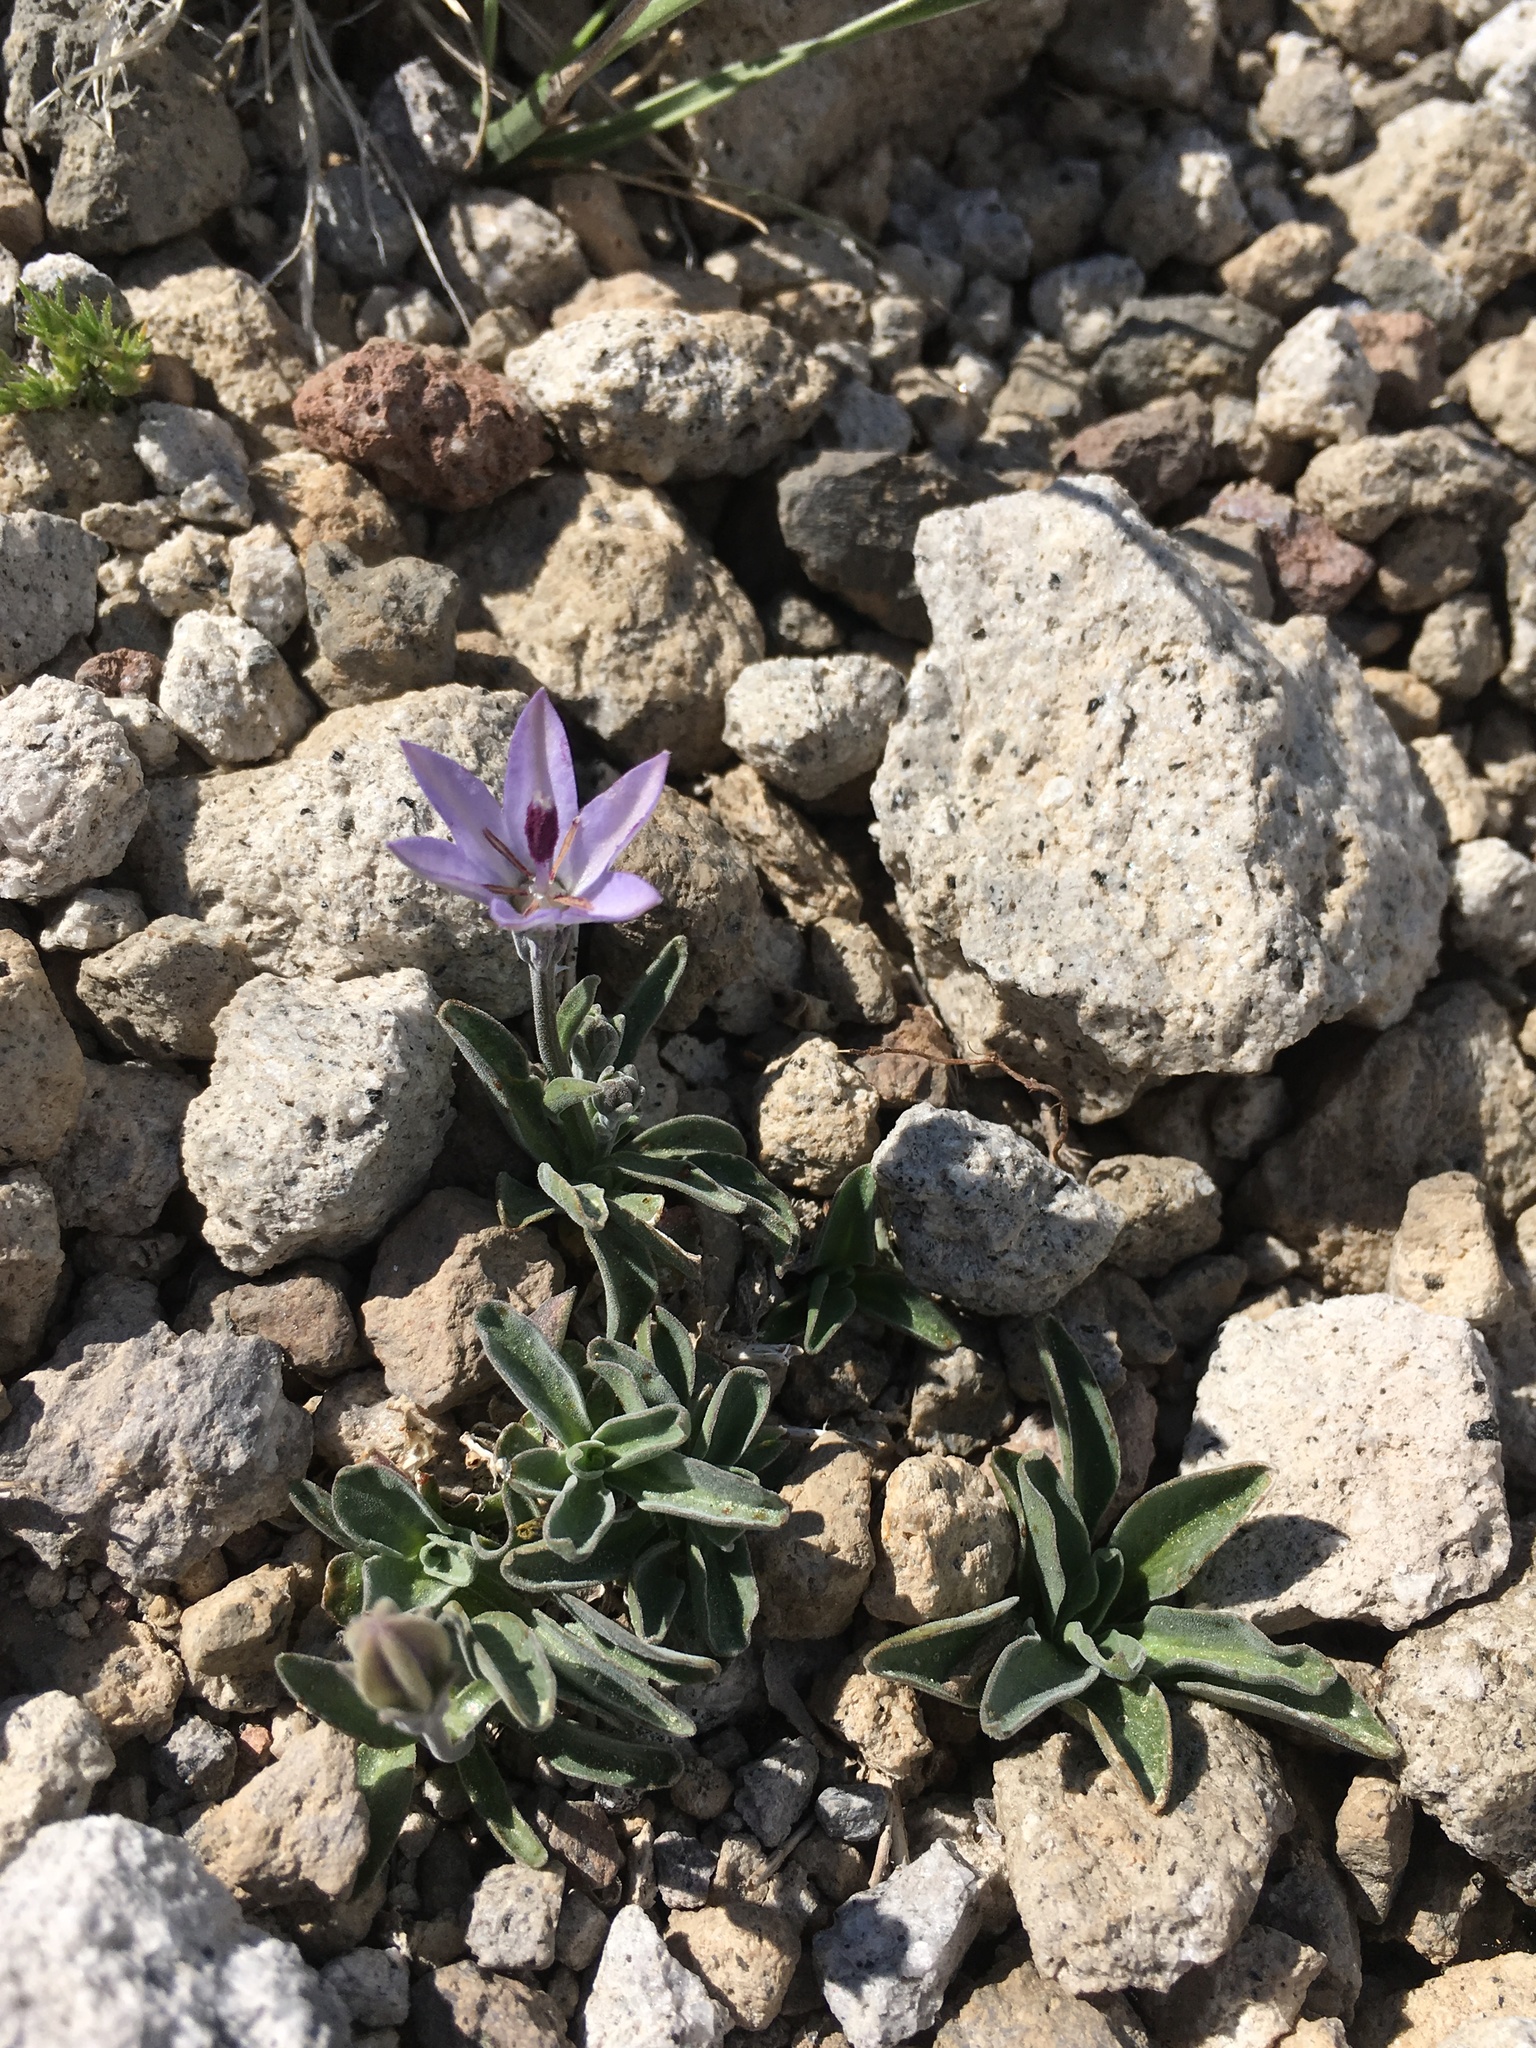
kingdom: Plantae
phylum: Tracheophyta
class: Magnoliopsida
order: Asterales
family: Campanulaceae
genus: Campanula
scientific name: Campanula scabrella
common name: Downy alpine bellflower
